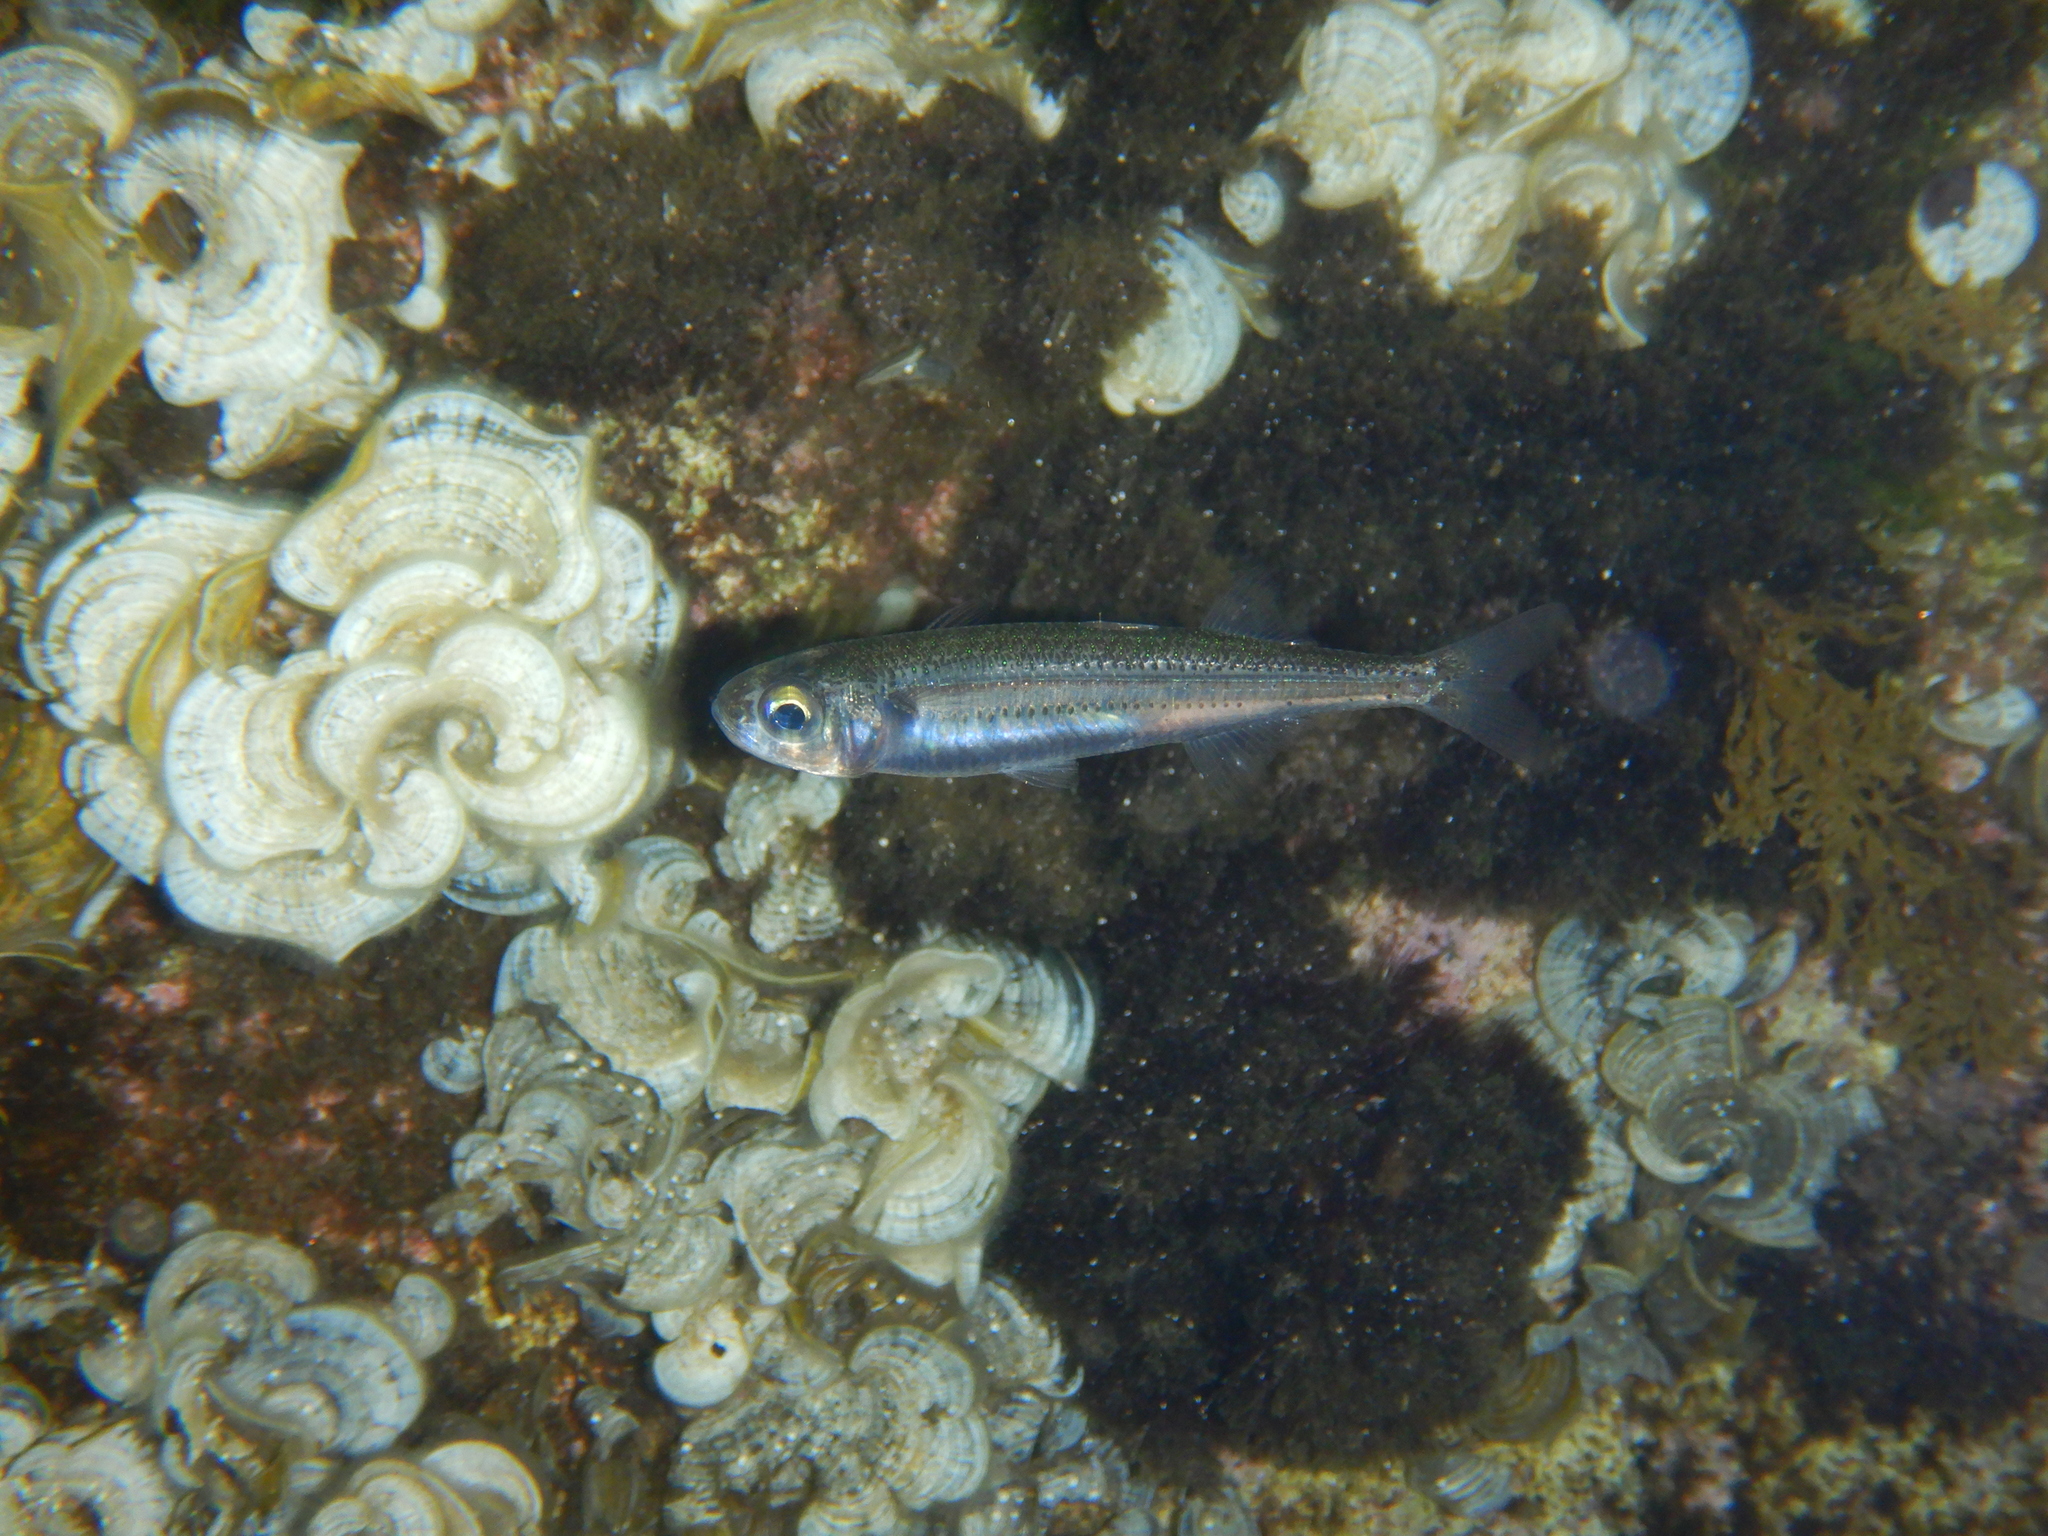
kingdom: Animalia
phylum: Chordata
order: Atheriniformes
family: Atherinidae
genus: Atherina
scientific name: Atherina
